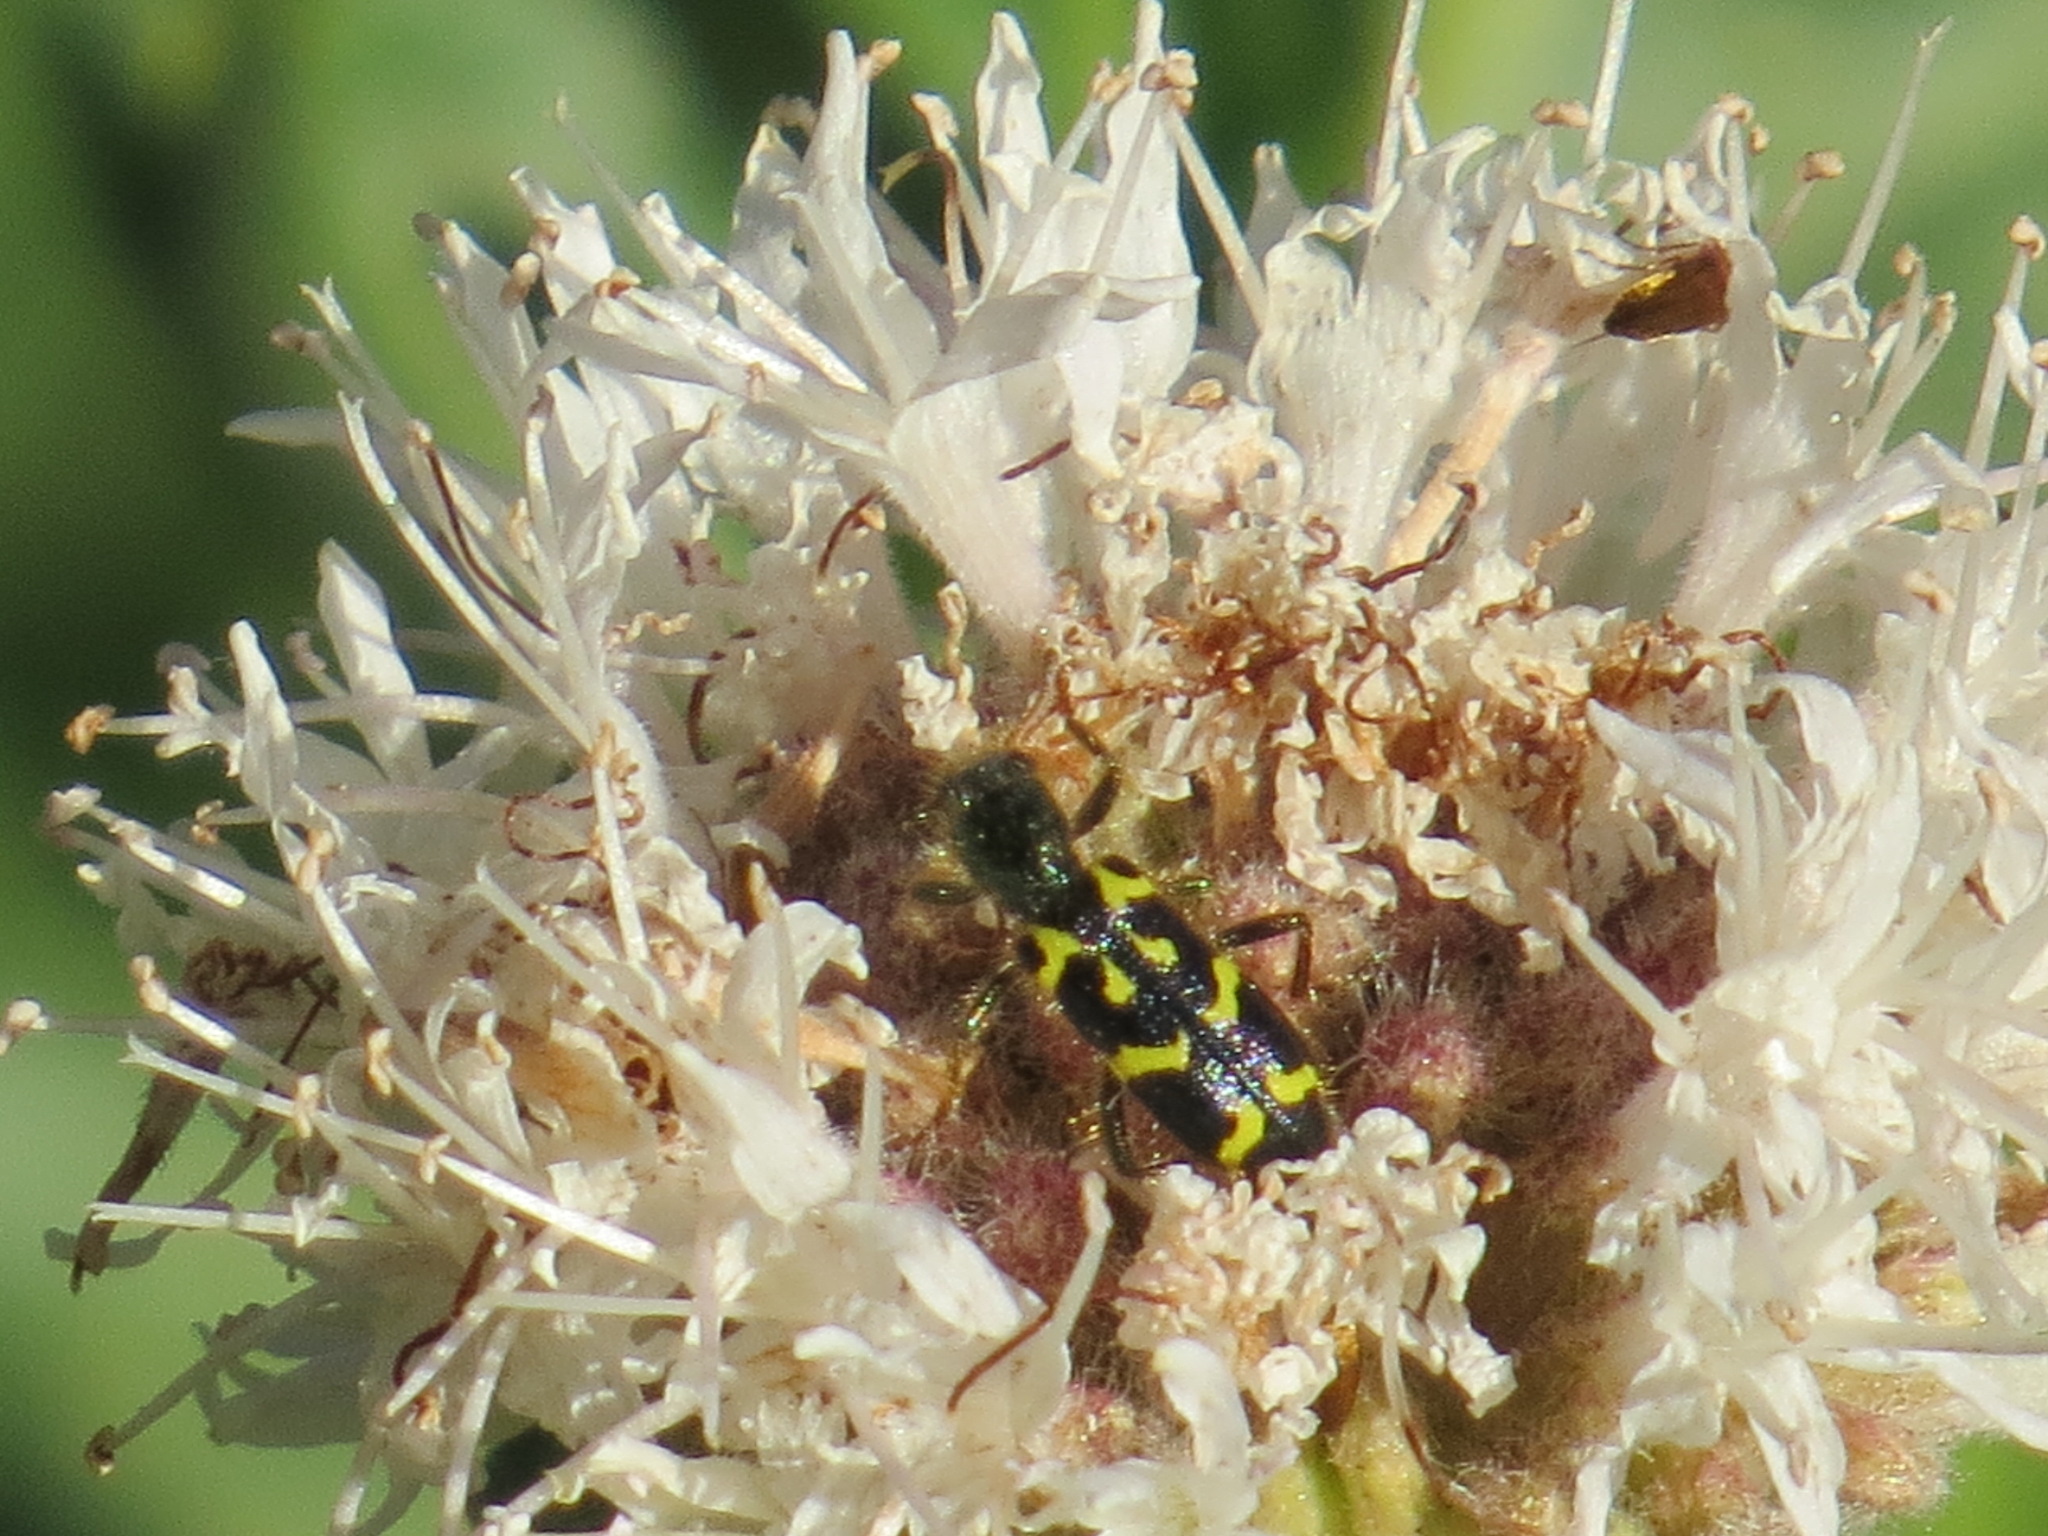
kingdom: Animalia
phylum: Arthropoda
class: Insecta
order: Coleoptera
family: Cleridae
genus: Trichodes
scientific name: Trichodes ornatus
